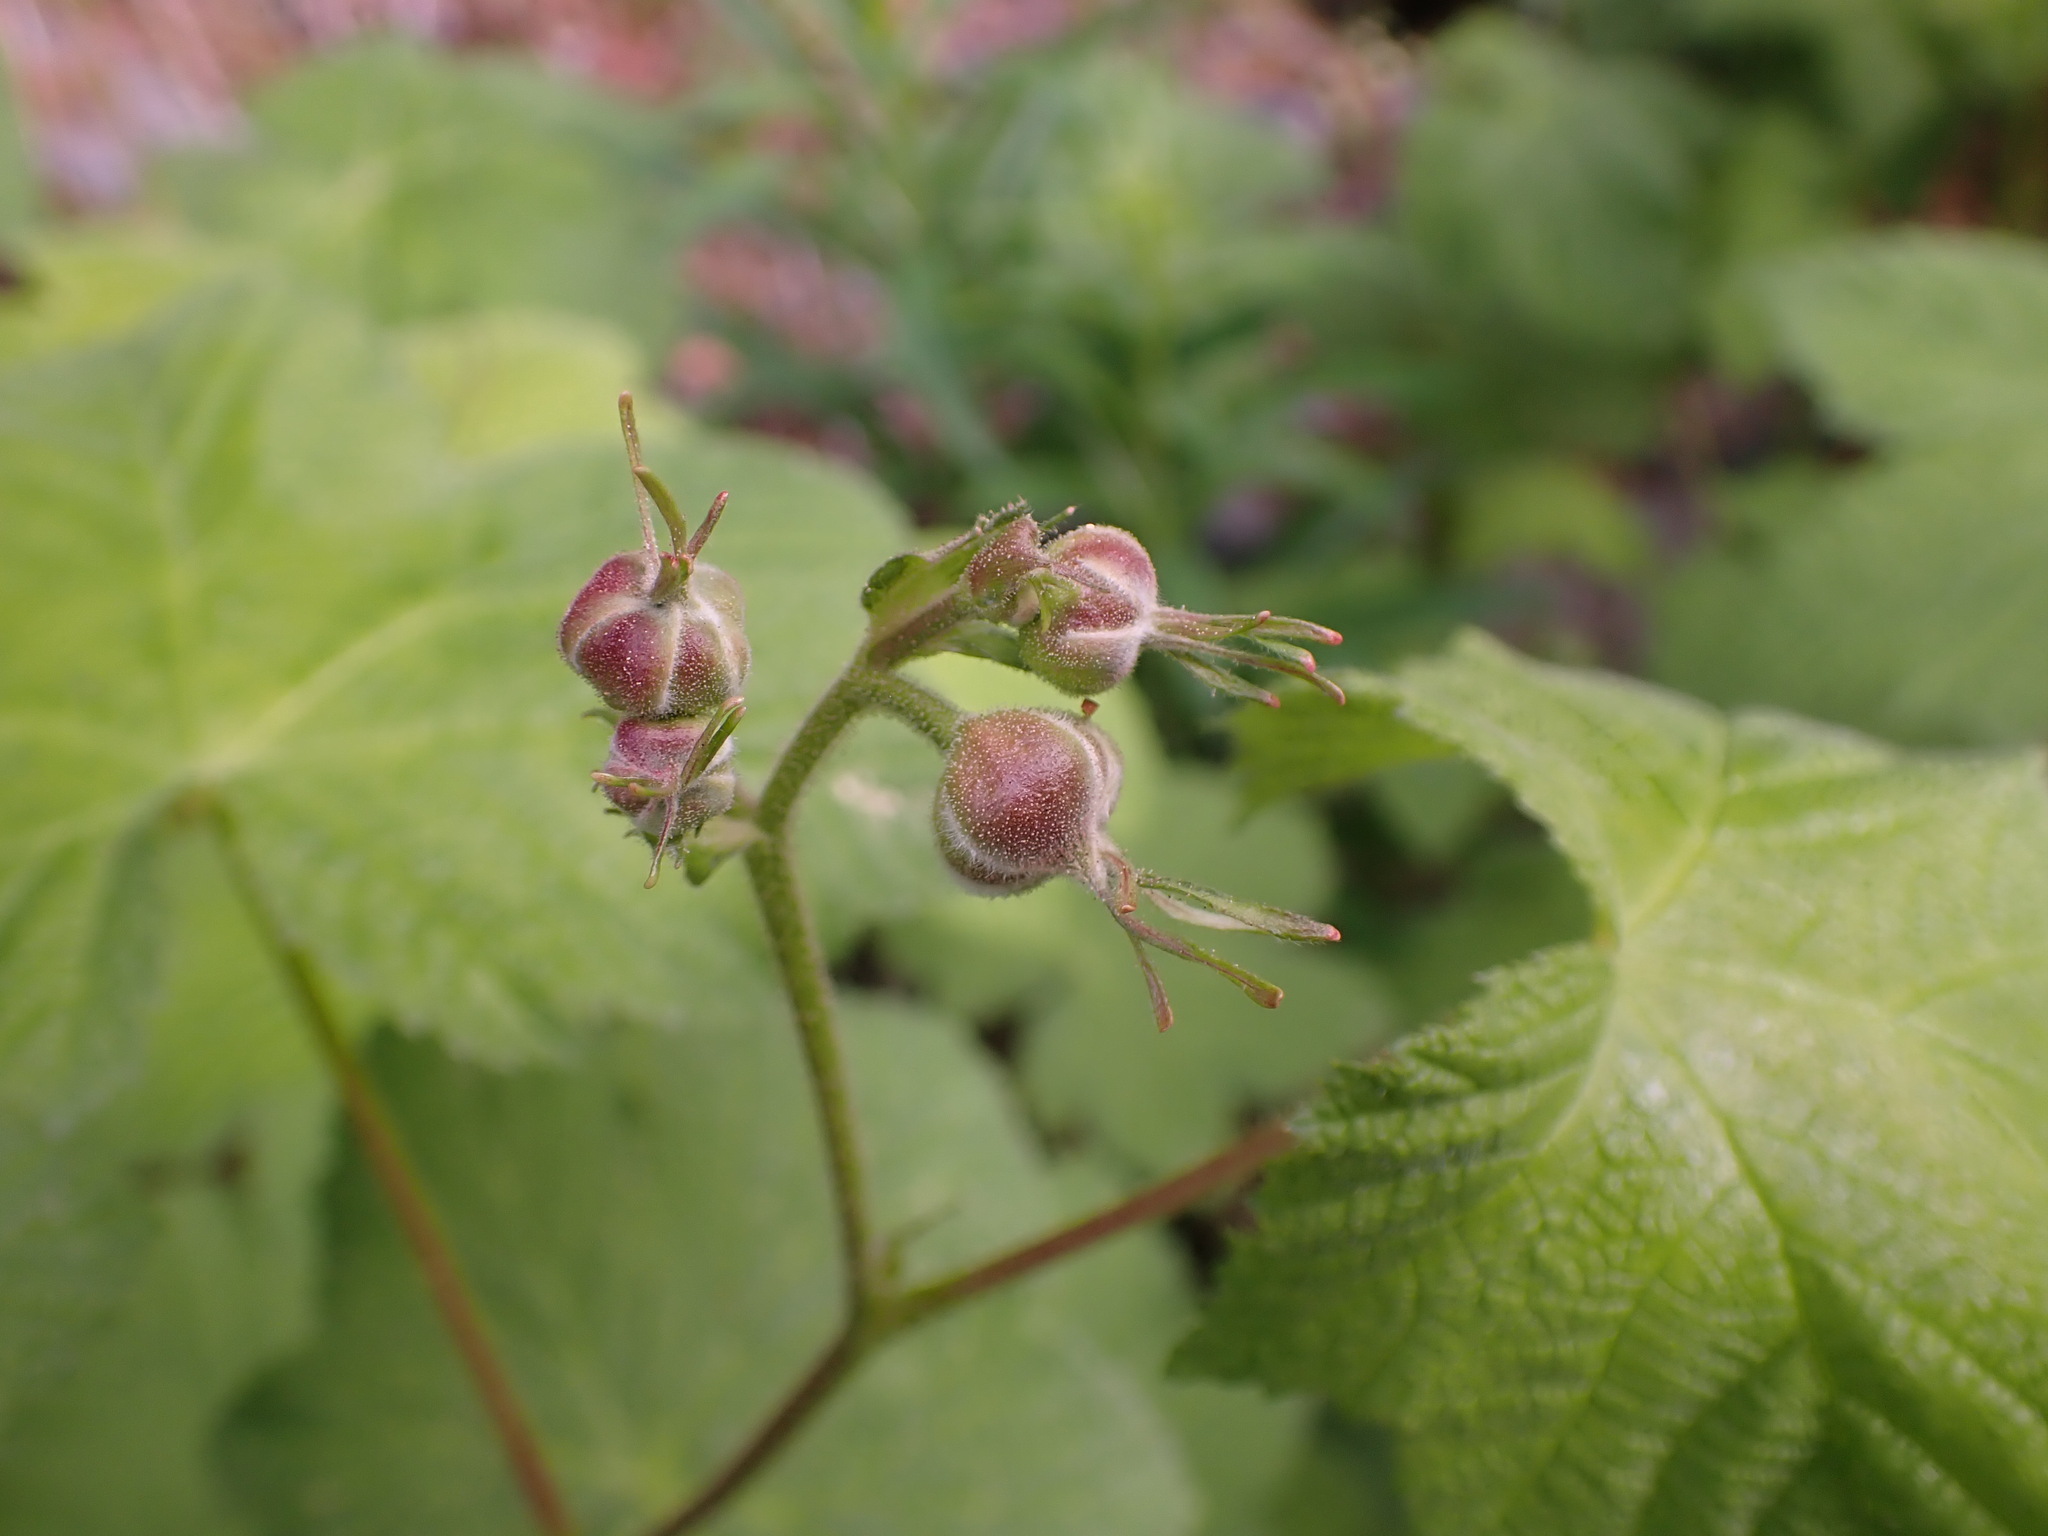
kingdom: Plantae
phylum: Tracheophyta
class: Magnoliopsida
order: Rosales
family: Rosaceae
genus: Rubus
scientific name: Rubus parviflorus
